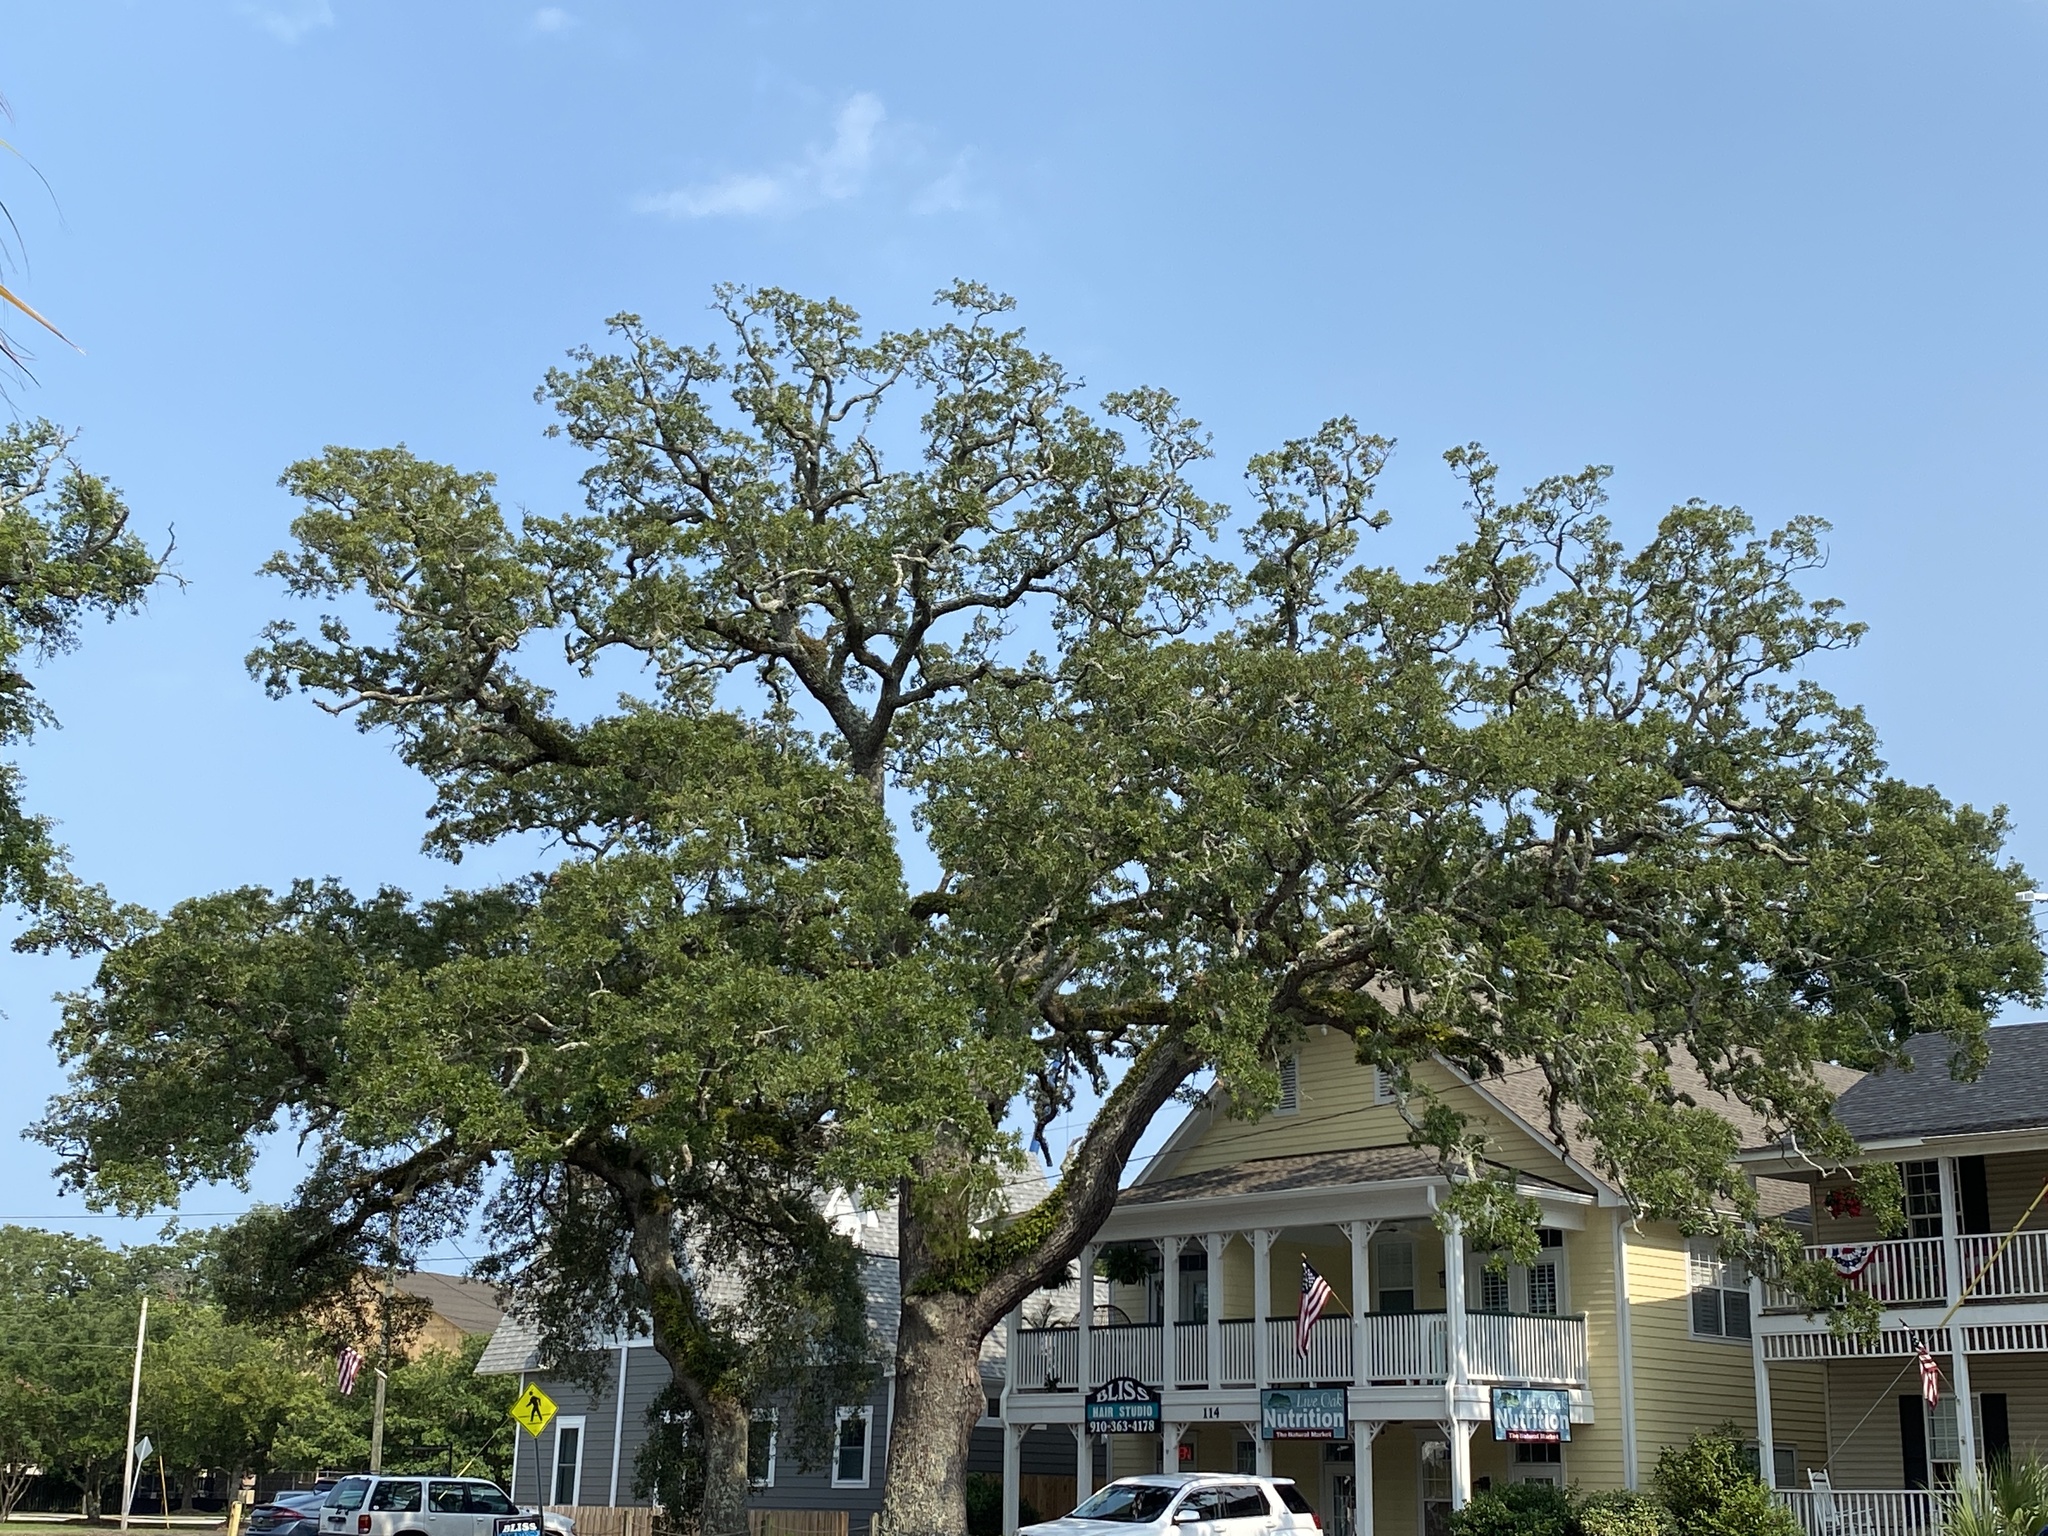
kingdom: Plantae
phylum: Tracheophyta
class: Magnoliopsida
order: Fagales
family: Fagaceae
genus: Quercus
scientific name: Quercus virginiana
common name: Southern live oak
